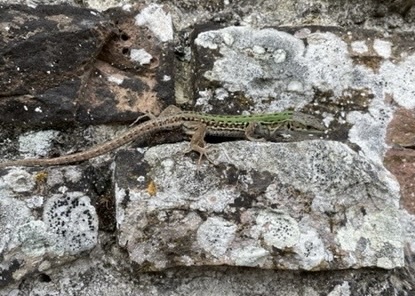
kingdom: Animalia
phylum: Chordata
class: Squamata
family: Lacertidae
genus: Podarcis
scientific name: Podarcis siculus
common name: Italian wall lizard
